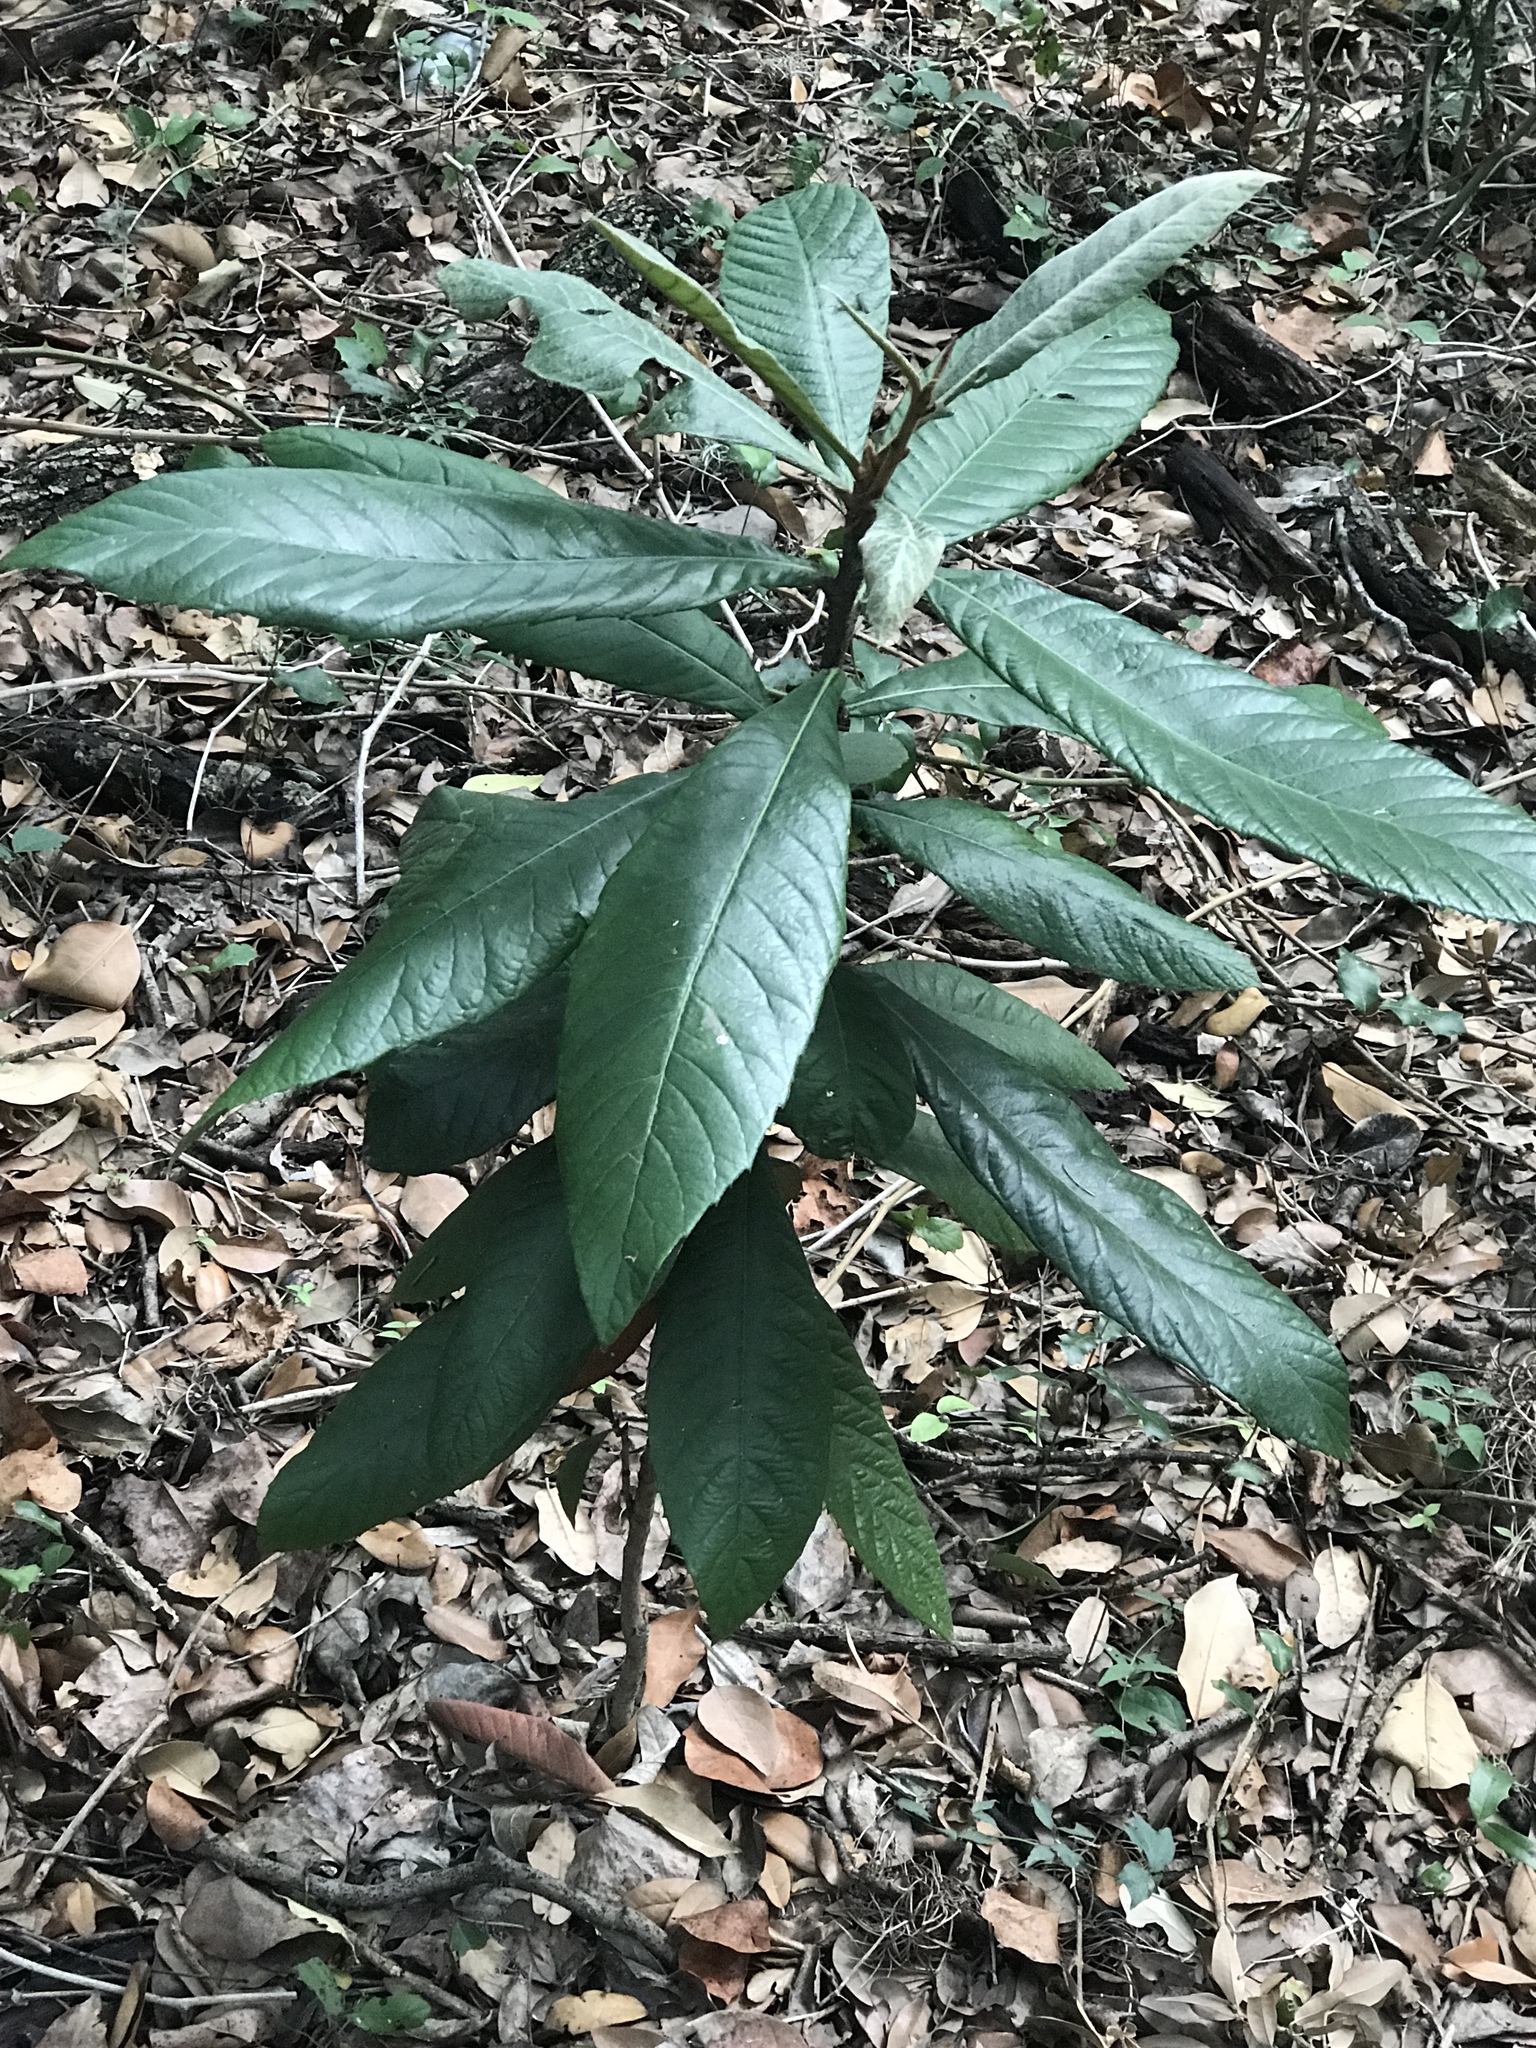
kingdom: Plantae
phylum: Tracheophyta
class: Magnoliopsida
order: Rosales
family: Rosaceae
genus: Rhaphiolepis
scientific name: Rhaphiolepis bibas
